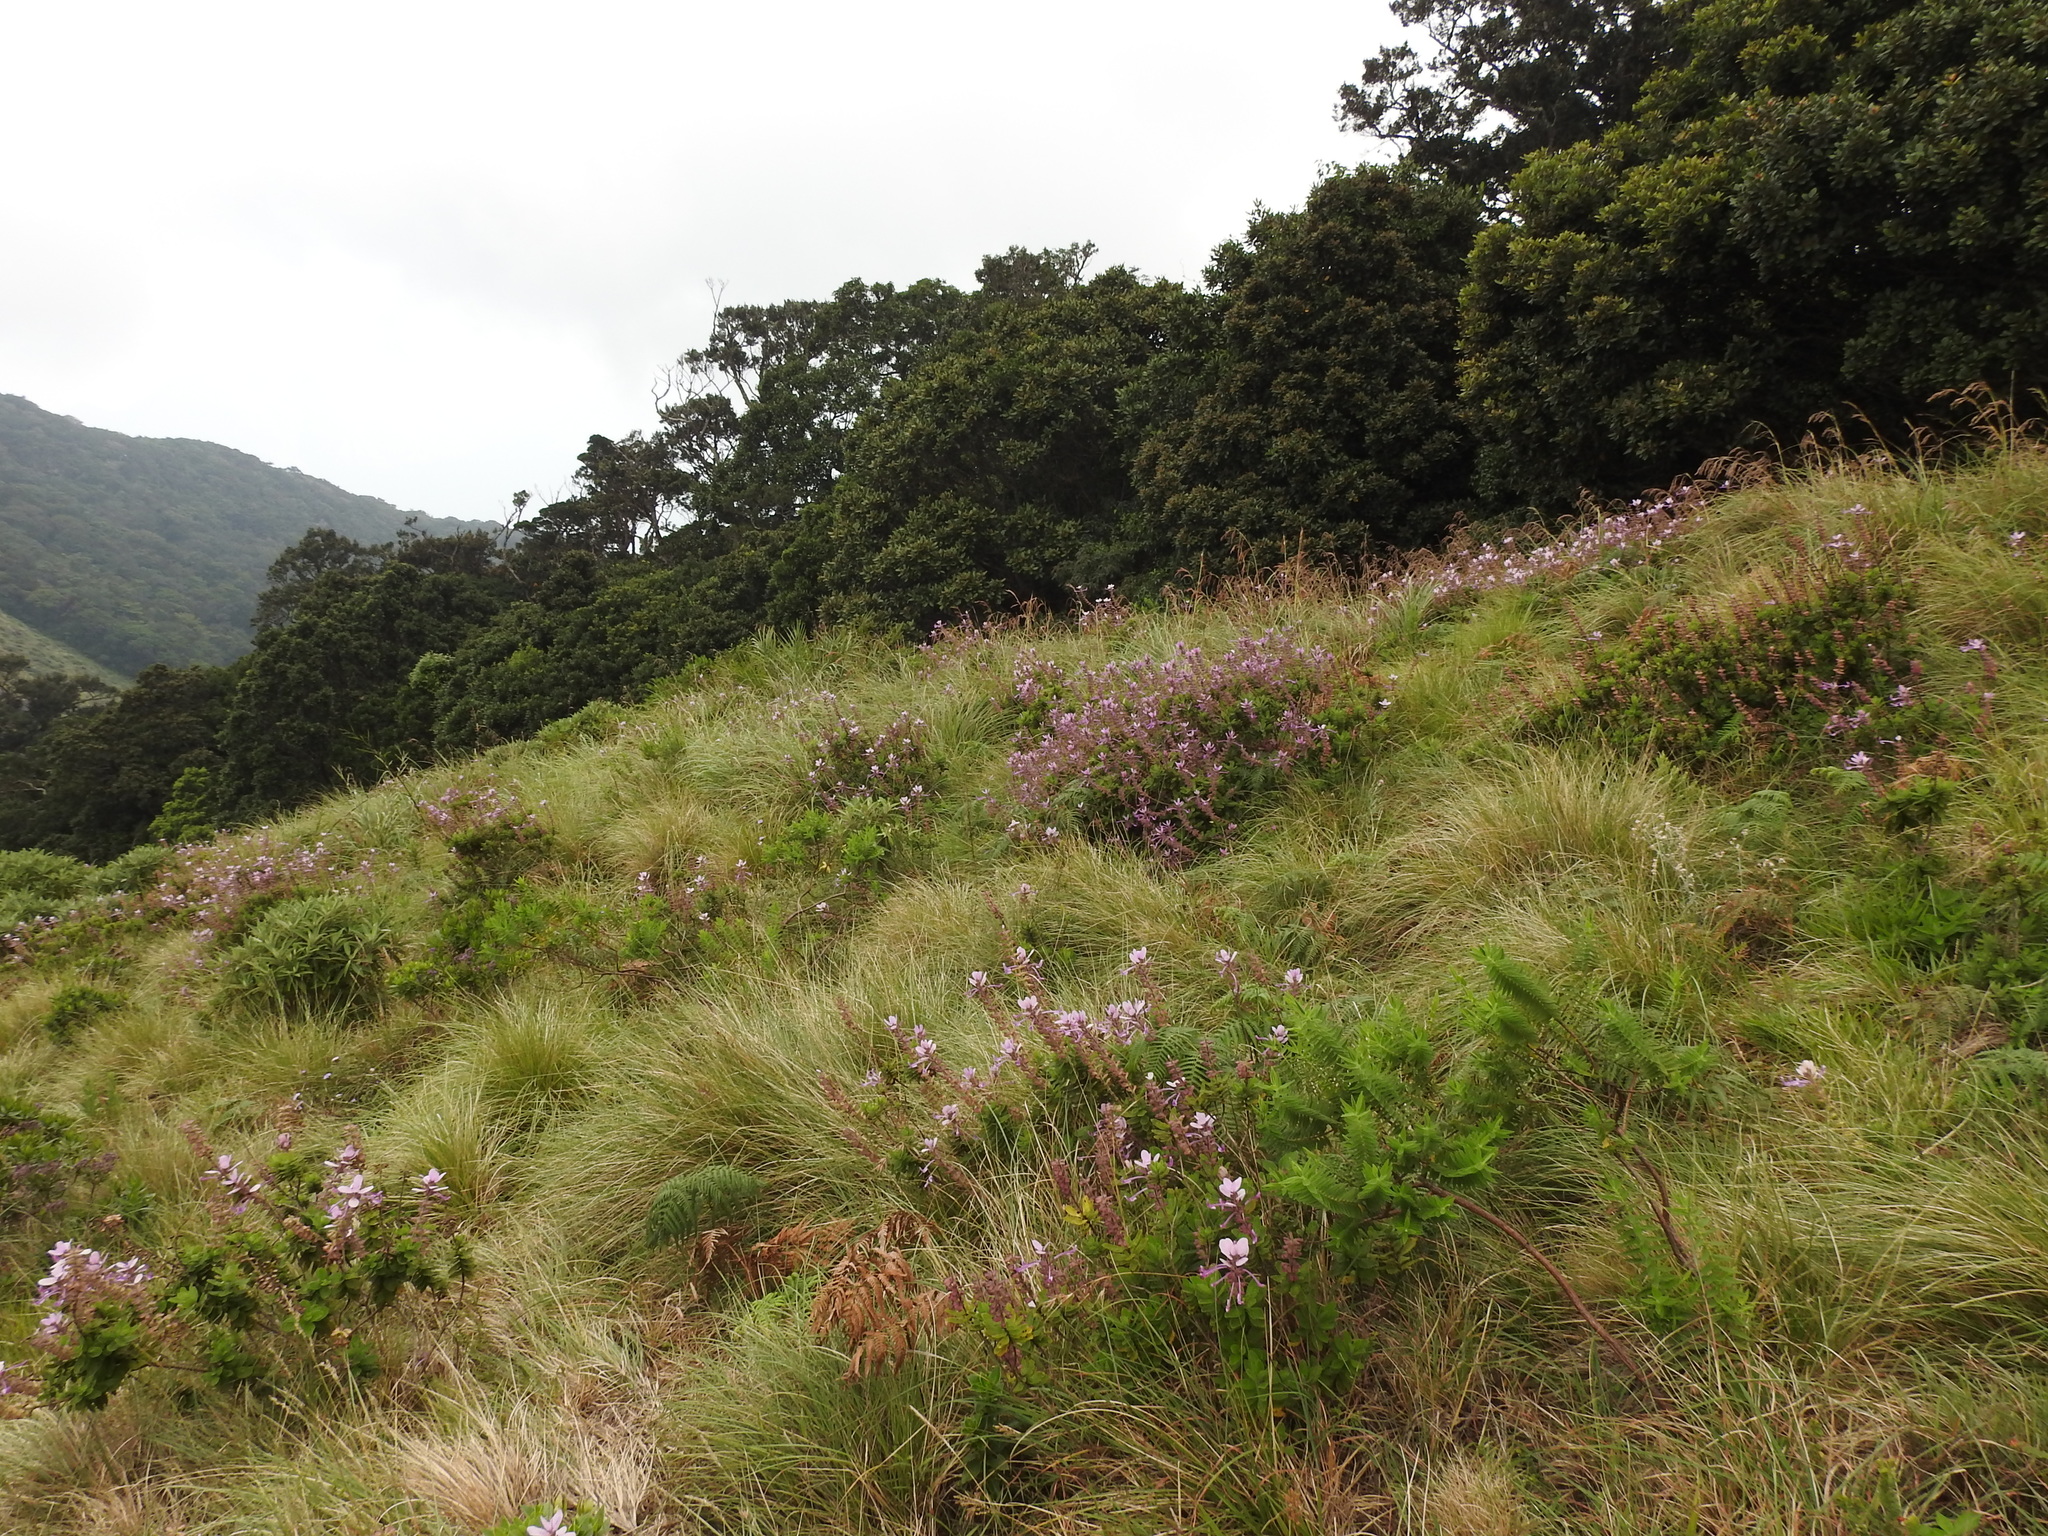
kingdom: Plantae
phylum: Tracheophyta
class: Magnoliopsida
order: Lamiales
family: Lamiaceae
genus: Syncolostemon
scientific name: Syncolostemon comosus
